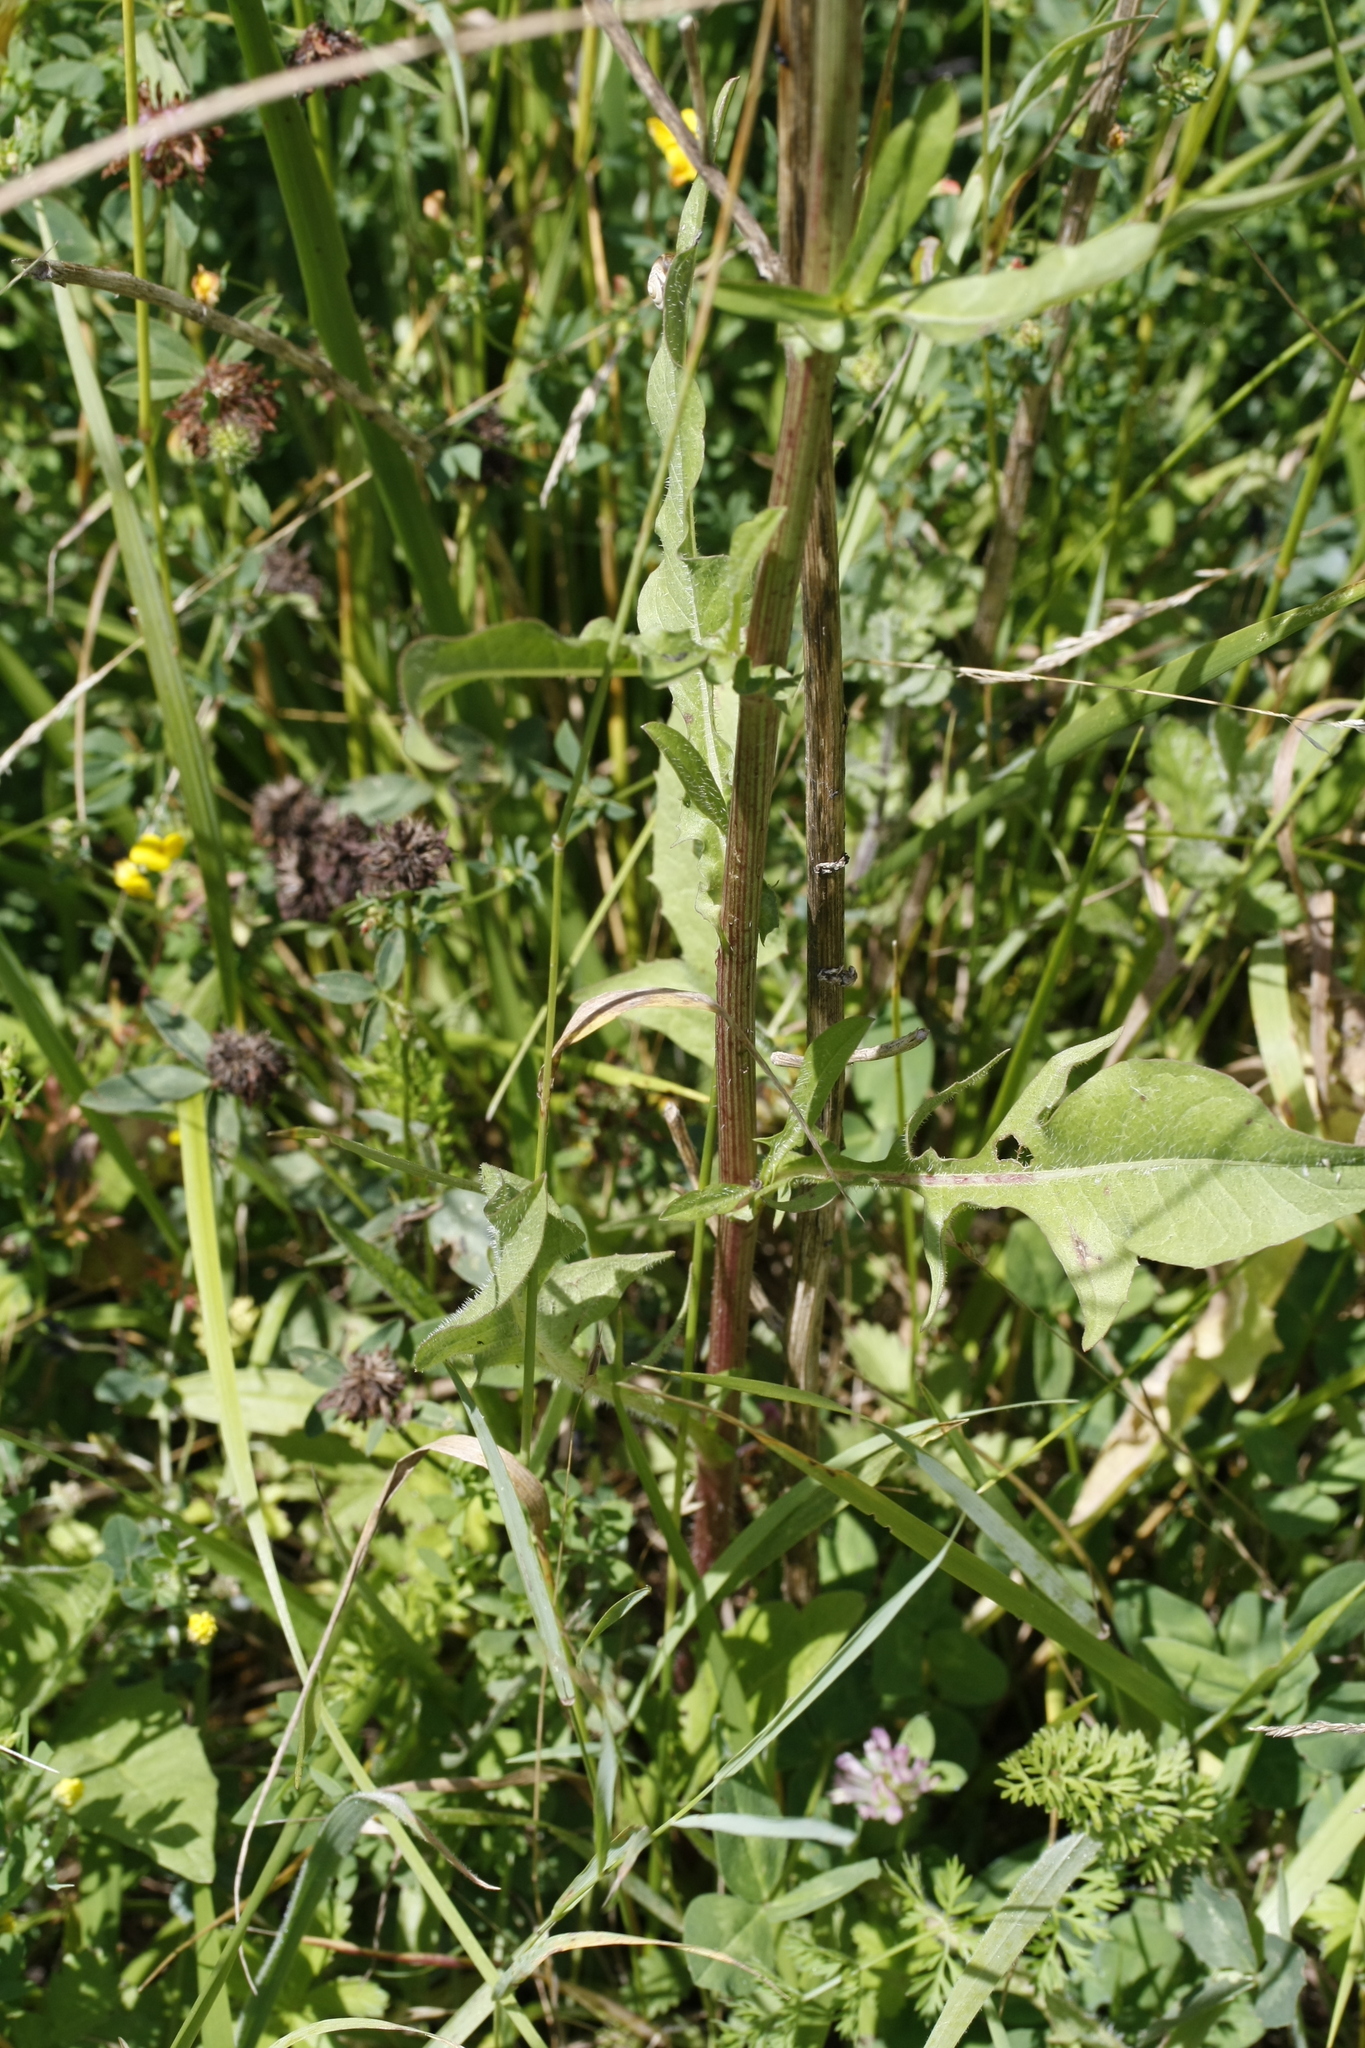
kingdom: Plantae
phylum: Tracheophyta
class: Magnoliopsida
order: Asterales
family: Asteraceae
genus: Cichorium
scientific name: Cichorium intybus
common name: Chicory
